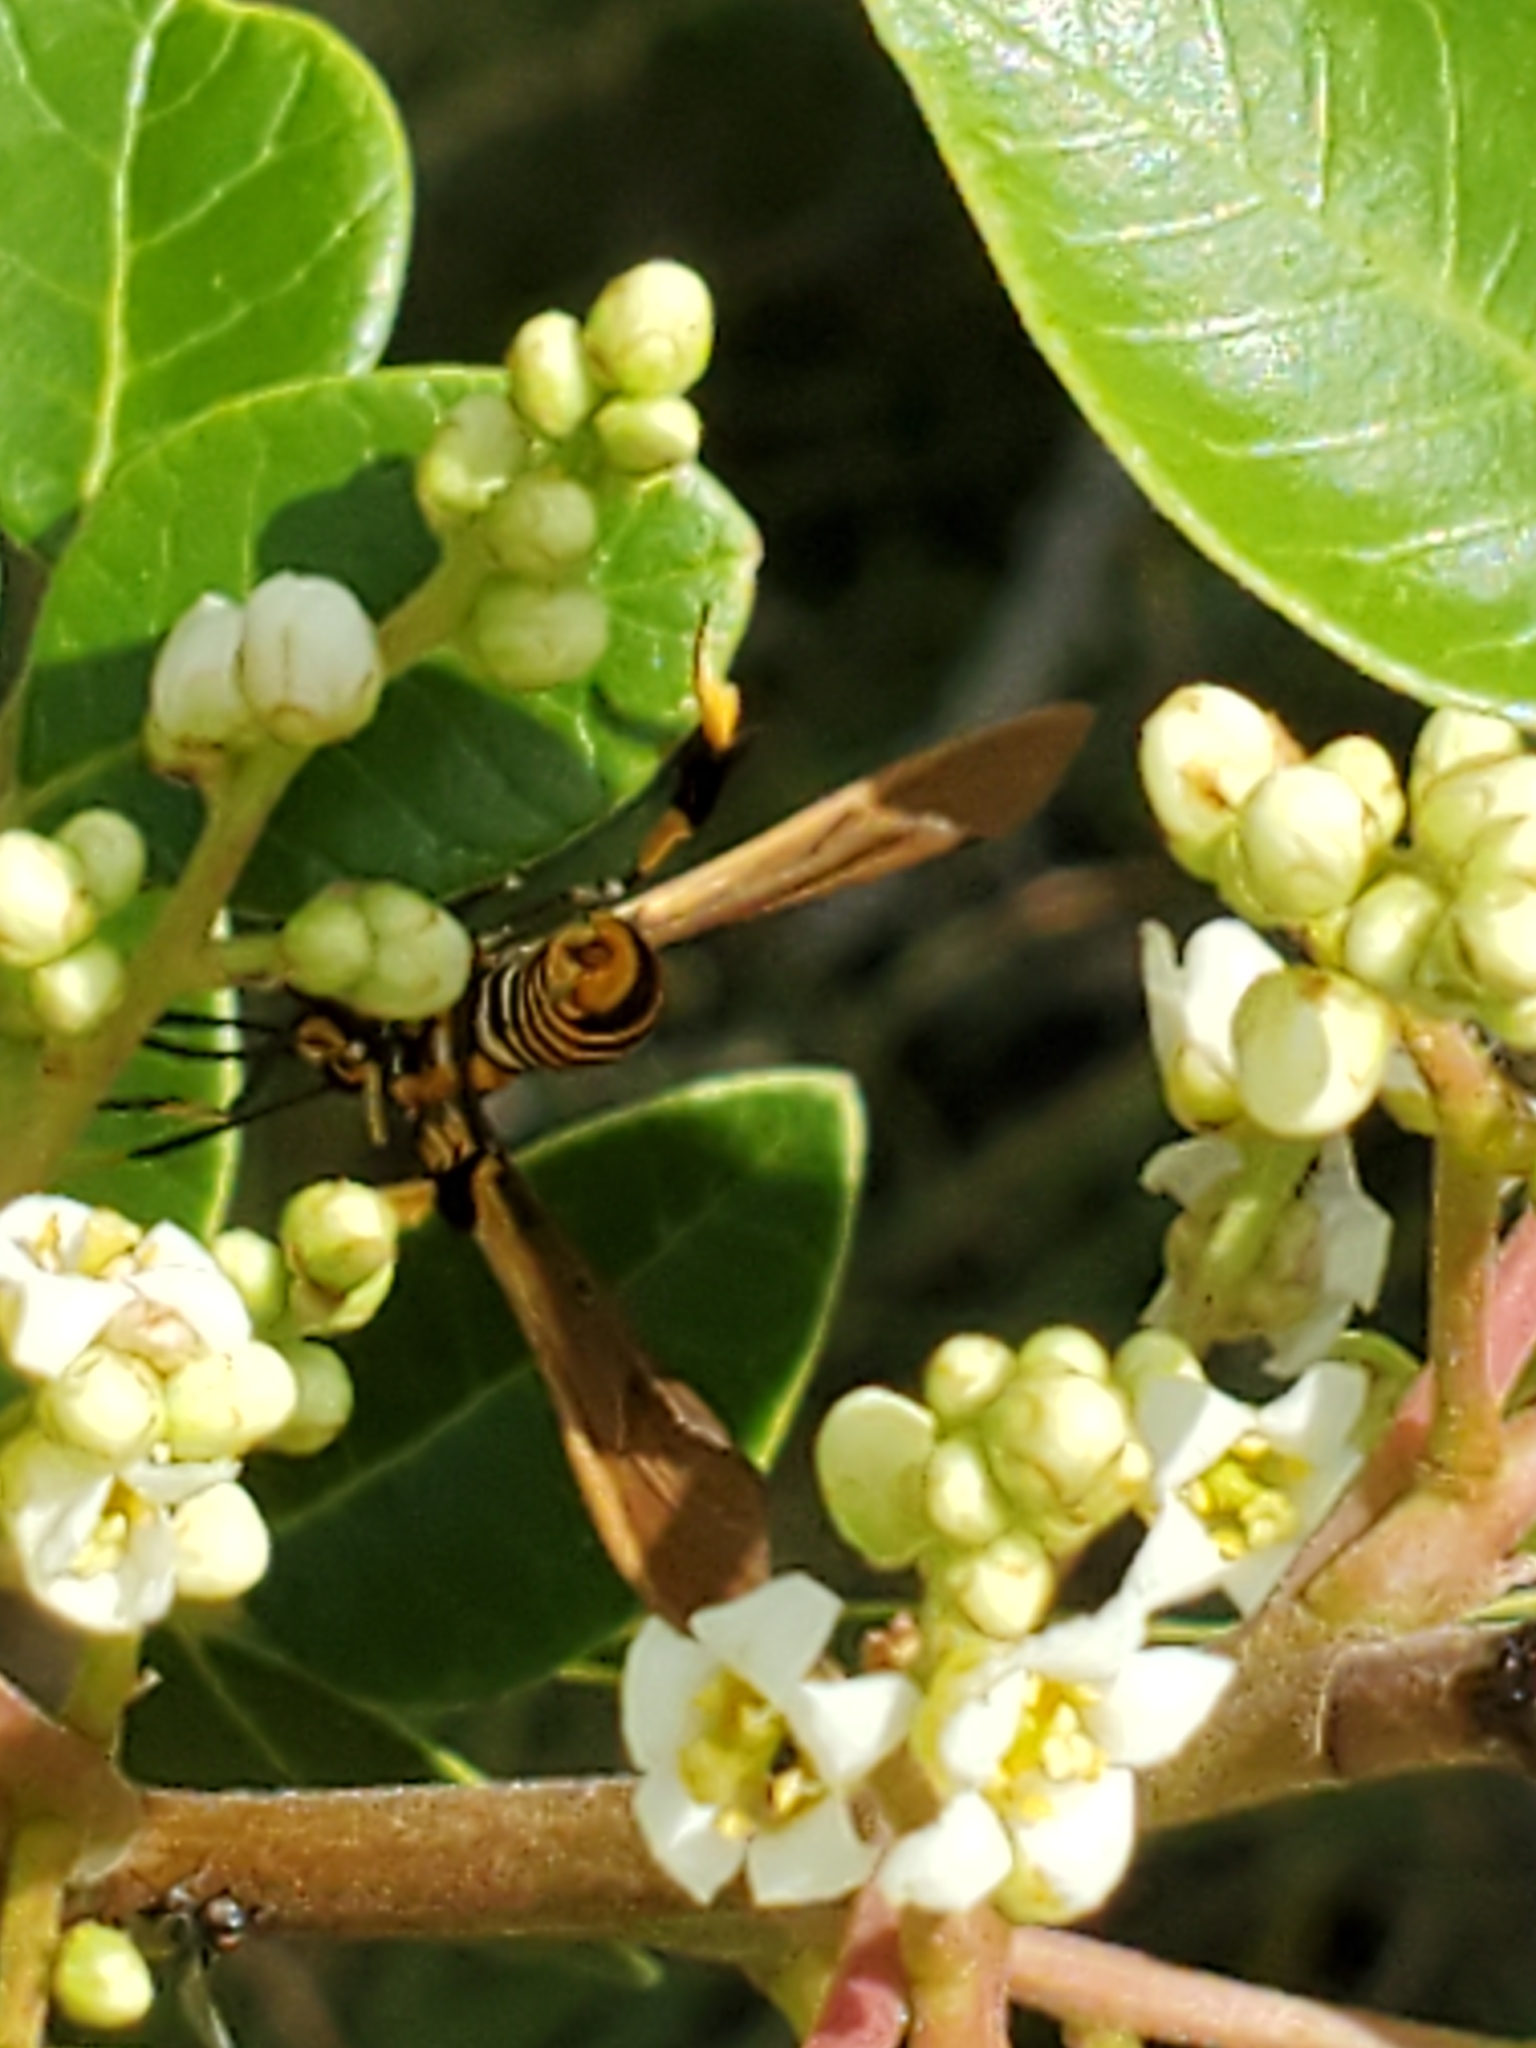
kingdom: Animalia
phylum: Arthropoda
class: Insecta
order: Lepidoptera
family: Erebidae
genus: Horama
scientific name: Horama panthalon
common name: Texas wasp moth
